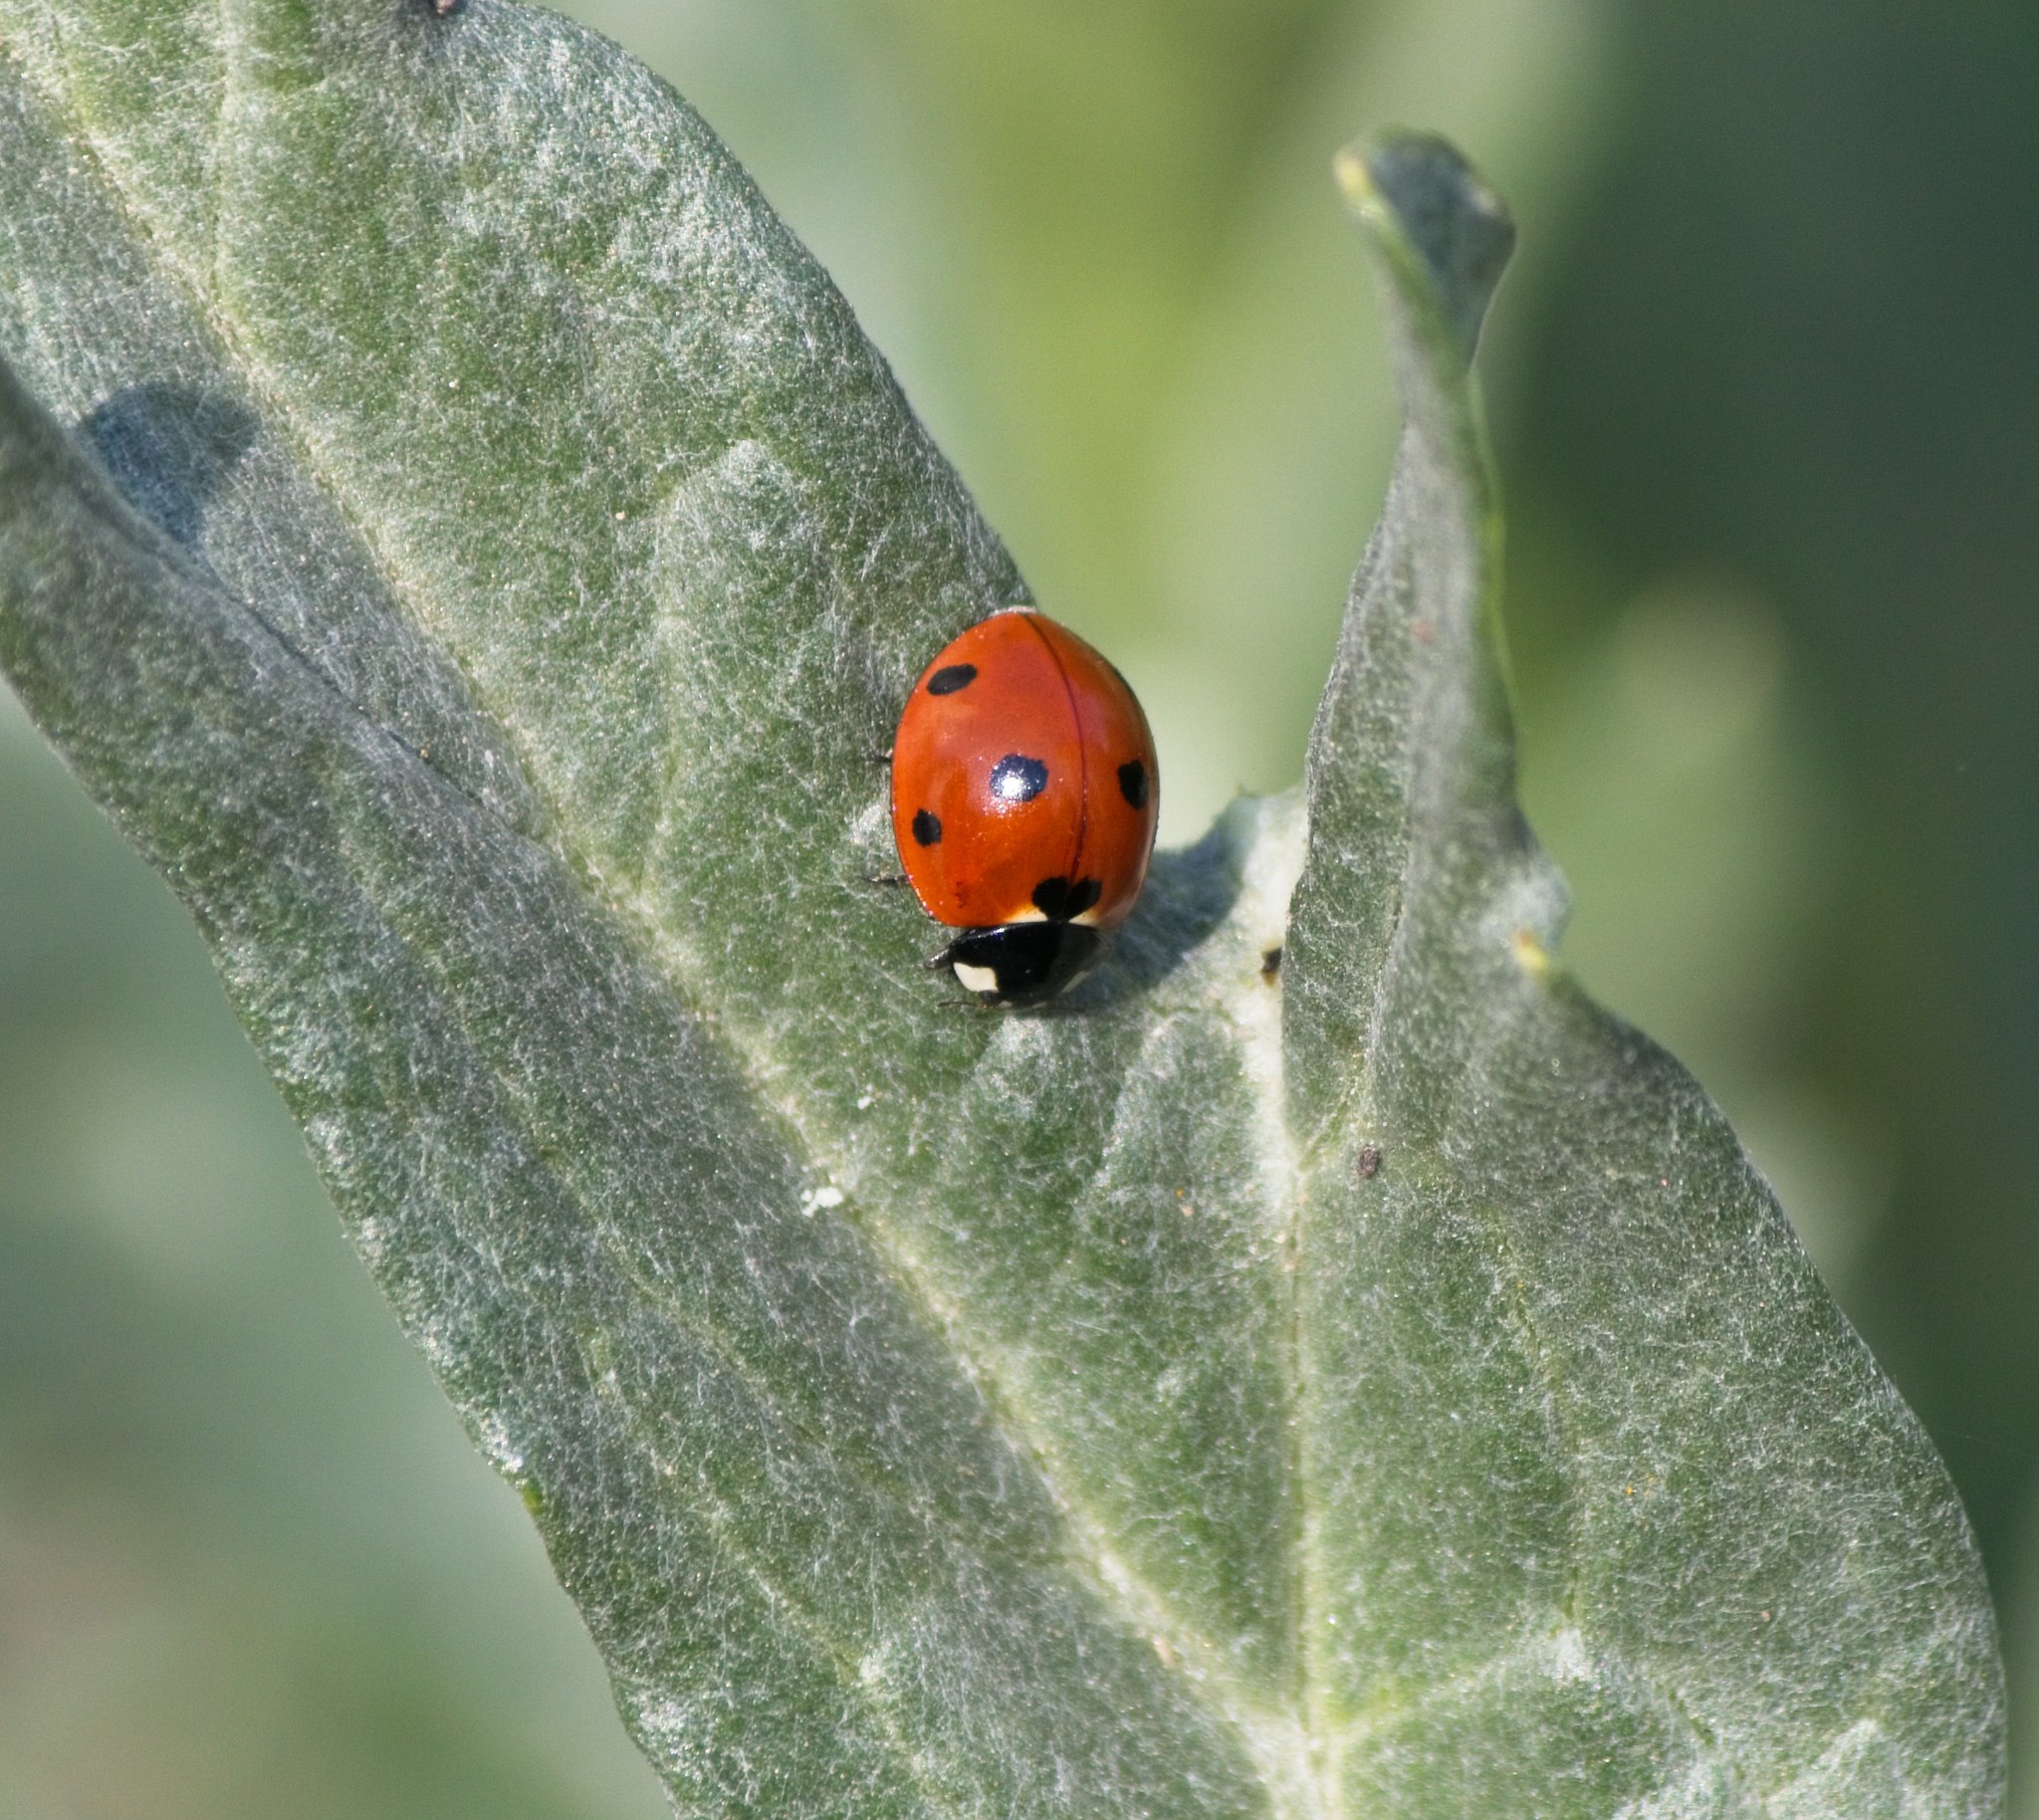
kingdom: Animalia
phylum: Arthropoda
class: Insecta
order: Coleoptera
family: Coccinellidae
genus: Coccinella
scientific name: Coccinella septempunctata
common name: Sevenspotted lady beetle
